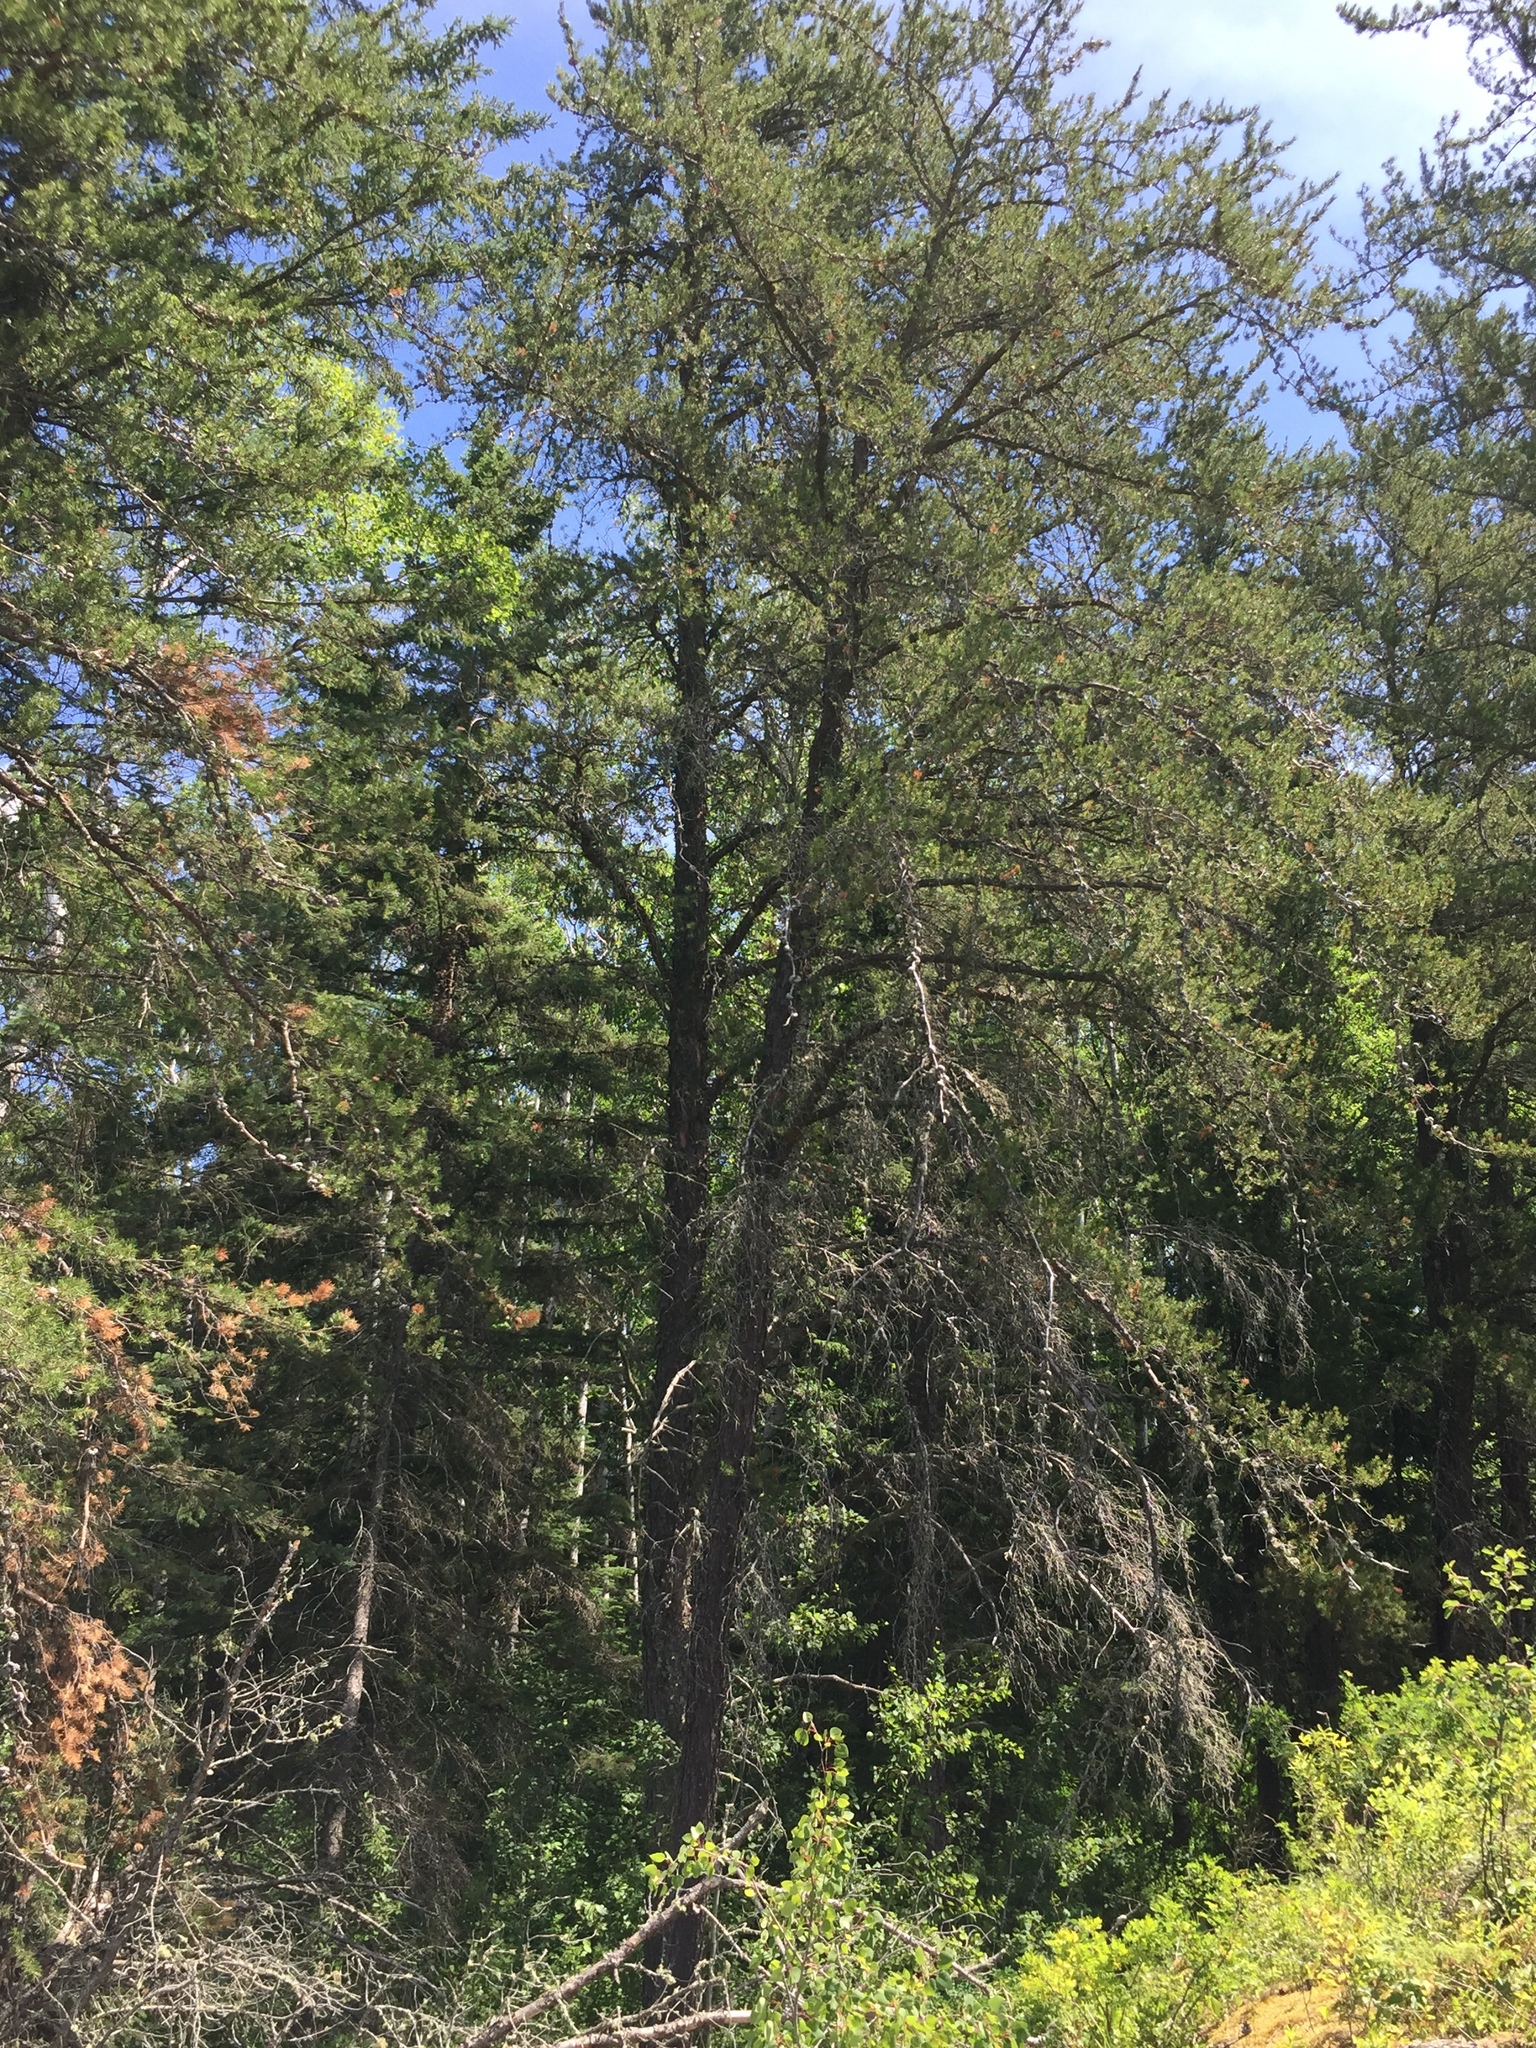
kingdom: Plantae
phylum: Tracheophyta
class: Pinopsida
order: Pinales
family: Pinaceae
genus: Pinus
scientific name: Pinus banksiana
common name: Jack pine
